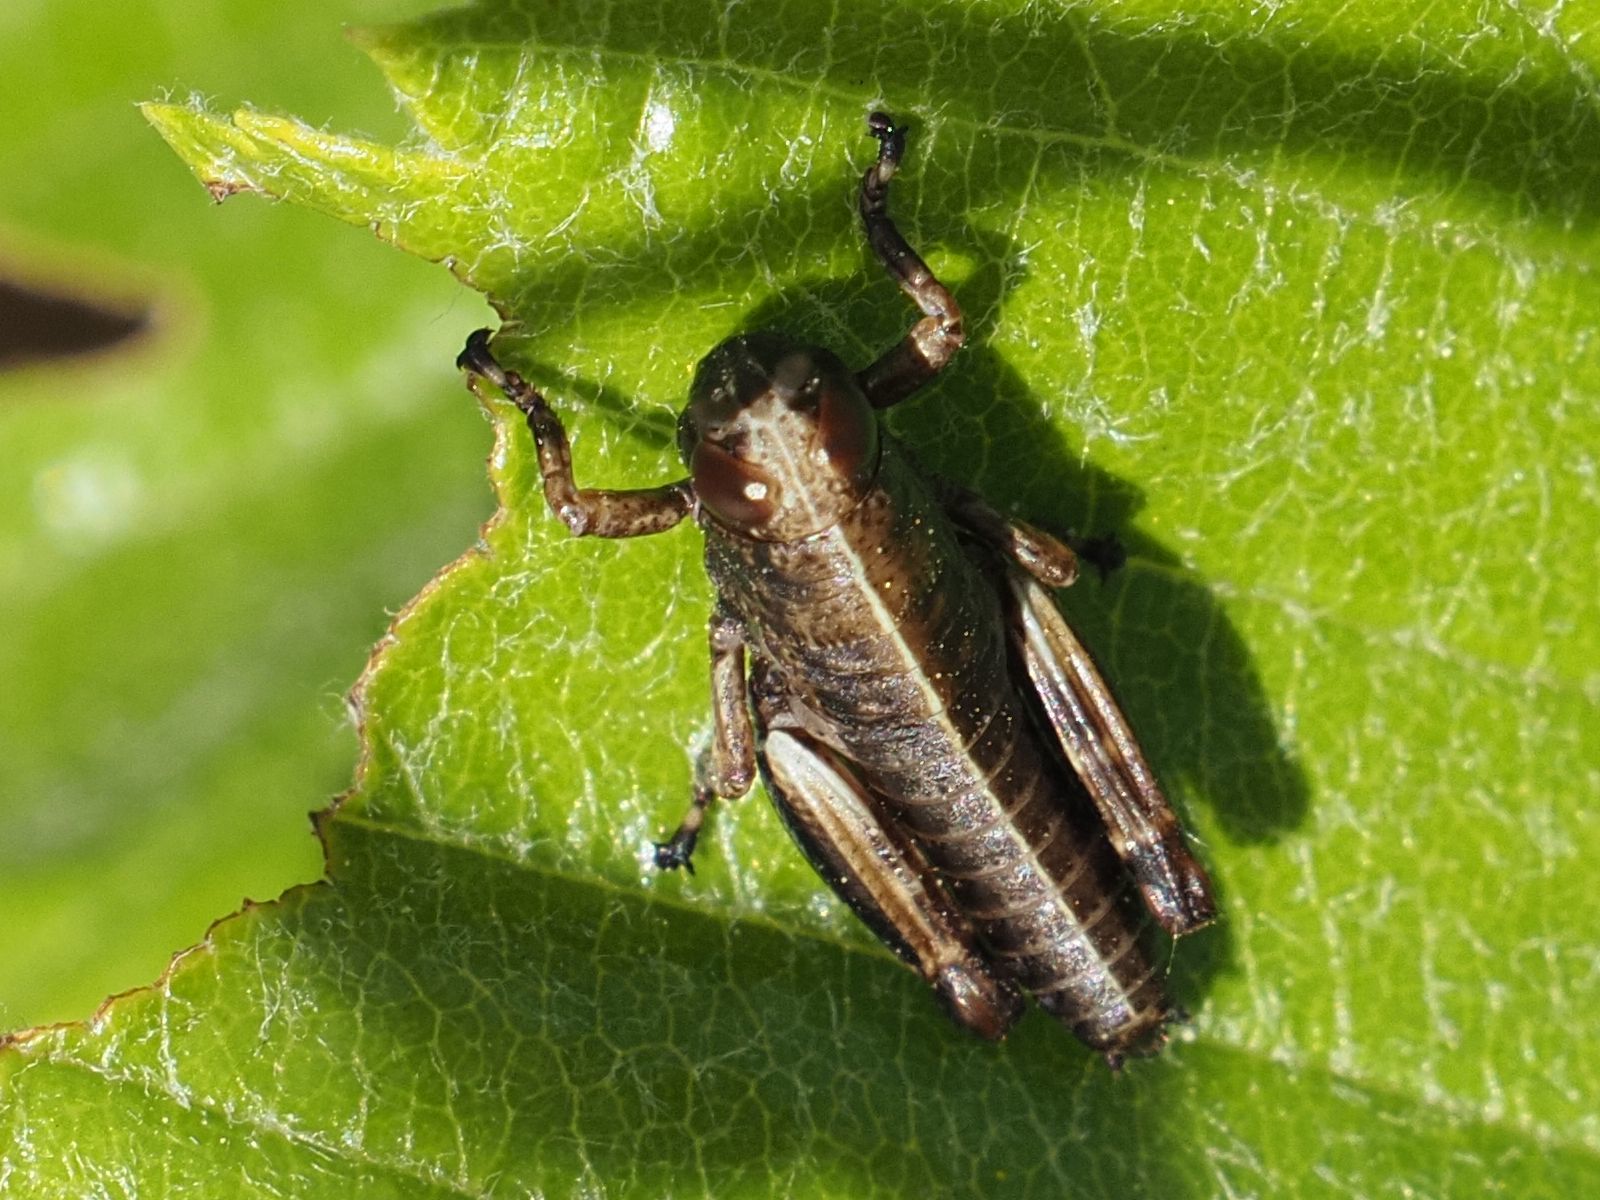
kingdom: Animalia
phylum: Arthropoda
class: Insecta
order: Orthoptera
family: Acrididae
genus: Miramella
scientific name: Miramella alpina
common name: Green mountain grasshopper
